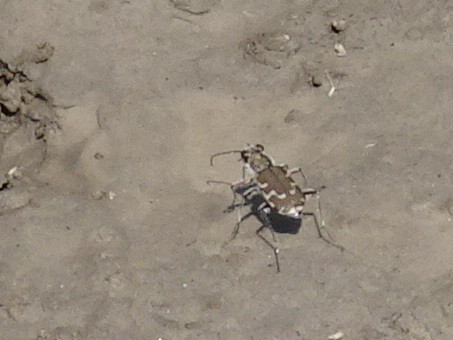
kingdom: Animalia
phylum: Arthropoda
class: Insecta
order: Coleoptera
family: Carabidae
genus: Cicindela
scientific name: Cicindela repanda
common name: Bronzed tiger beetle
